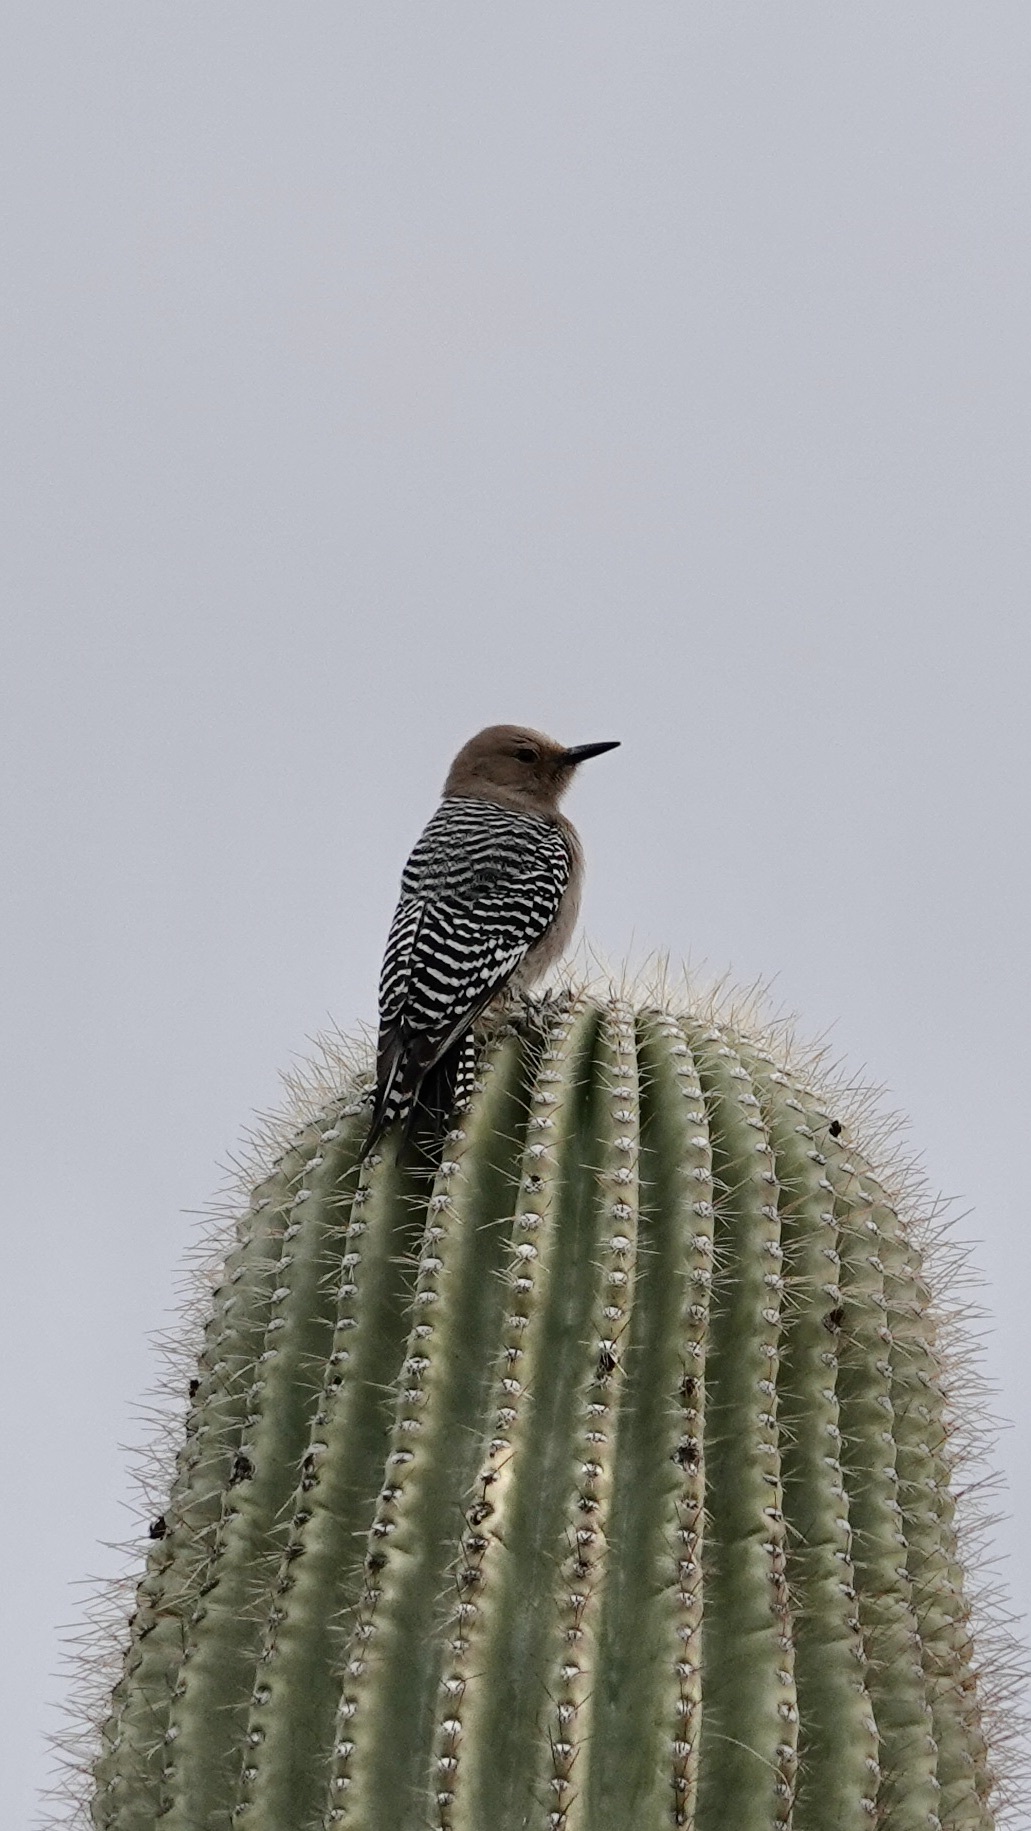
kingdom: Animalia
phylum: Chordata
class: Aves
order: Piciformes
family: Picidae
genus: Melanerpes
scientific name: Melanerpes uropygialis
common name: Gila woodpecker
